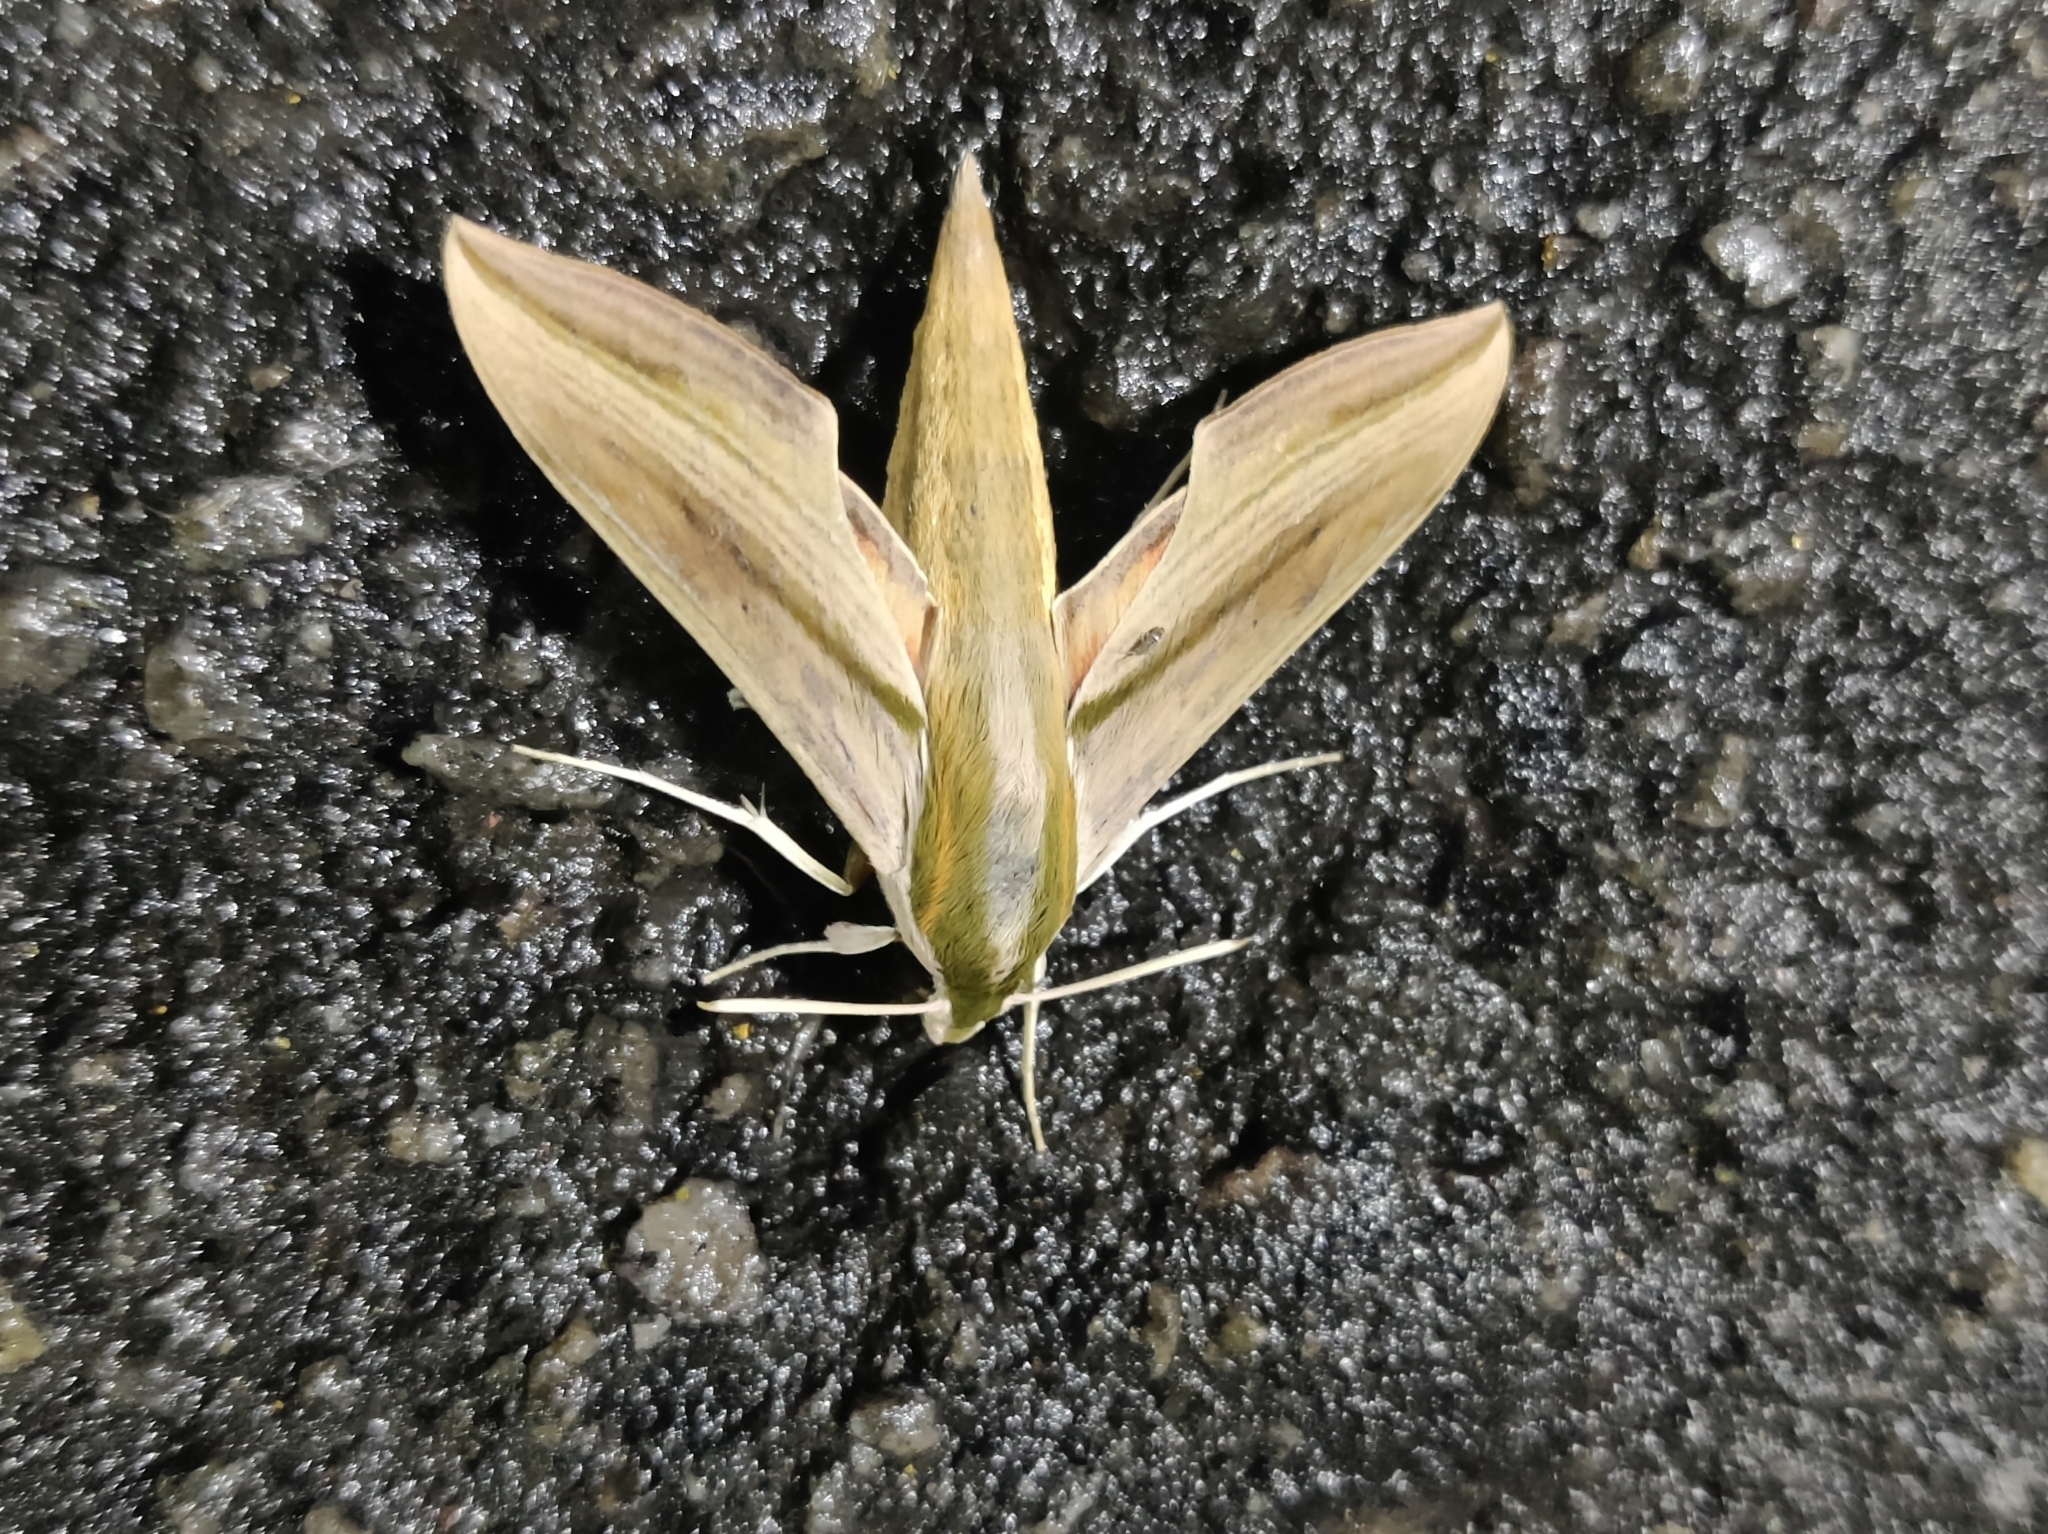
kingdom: Animalia
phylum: Arthropoda
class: Insecta
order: Lepidoptera
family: Sphingidae
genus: Hippotion
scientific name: Hippotion rosetta
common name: Vine hawk moth
